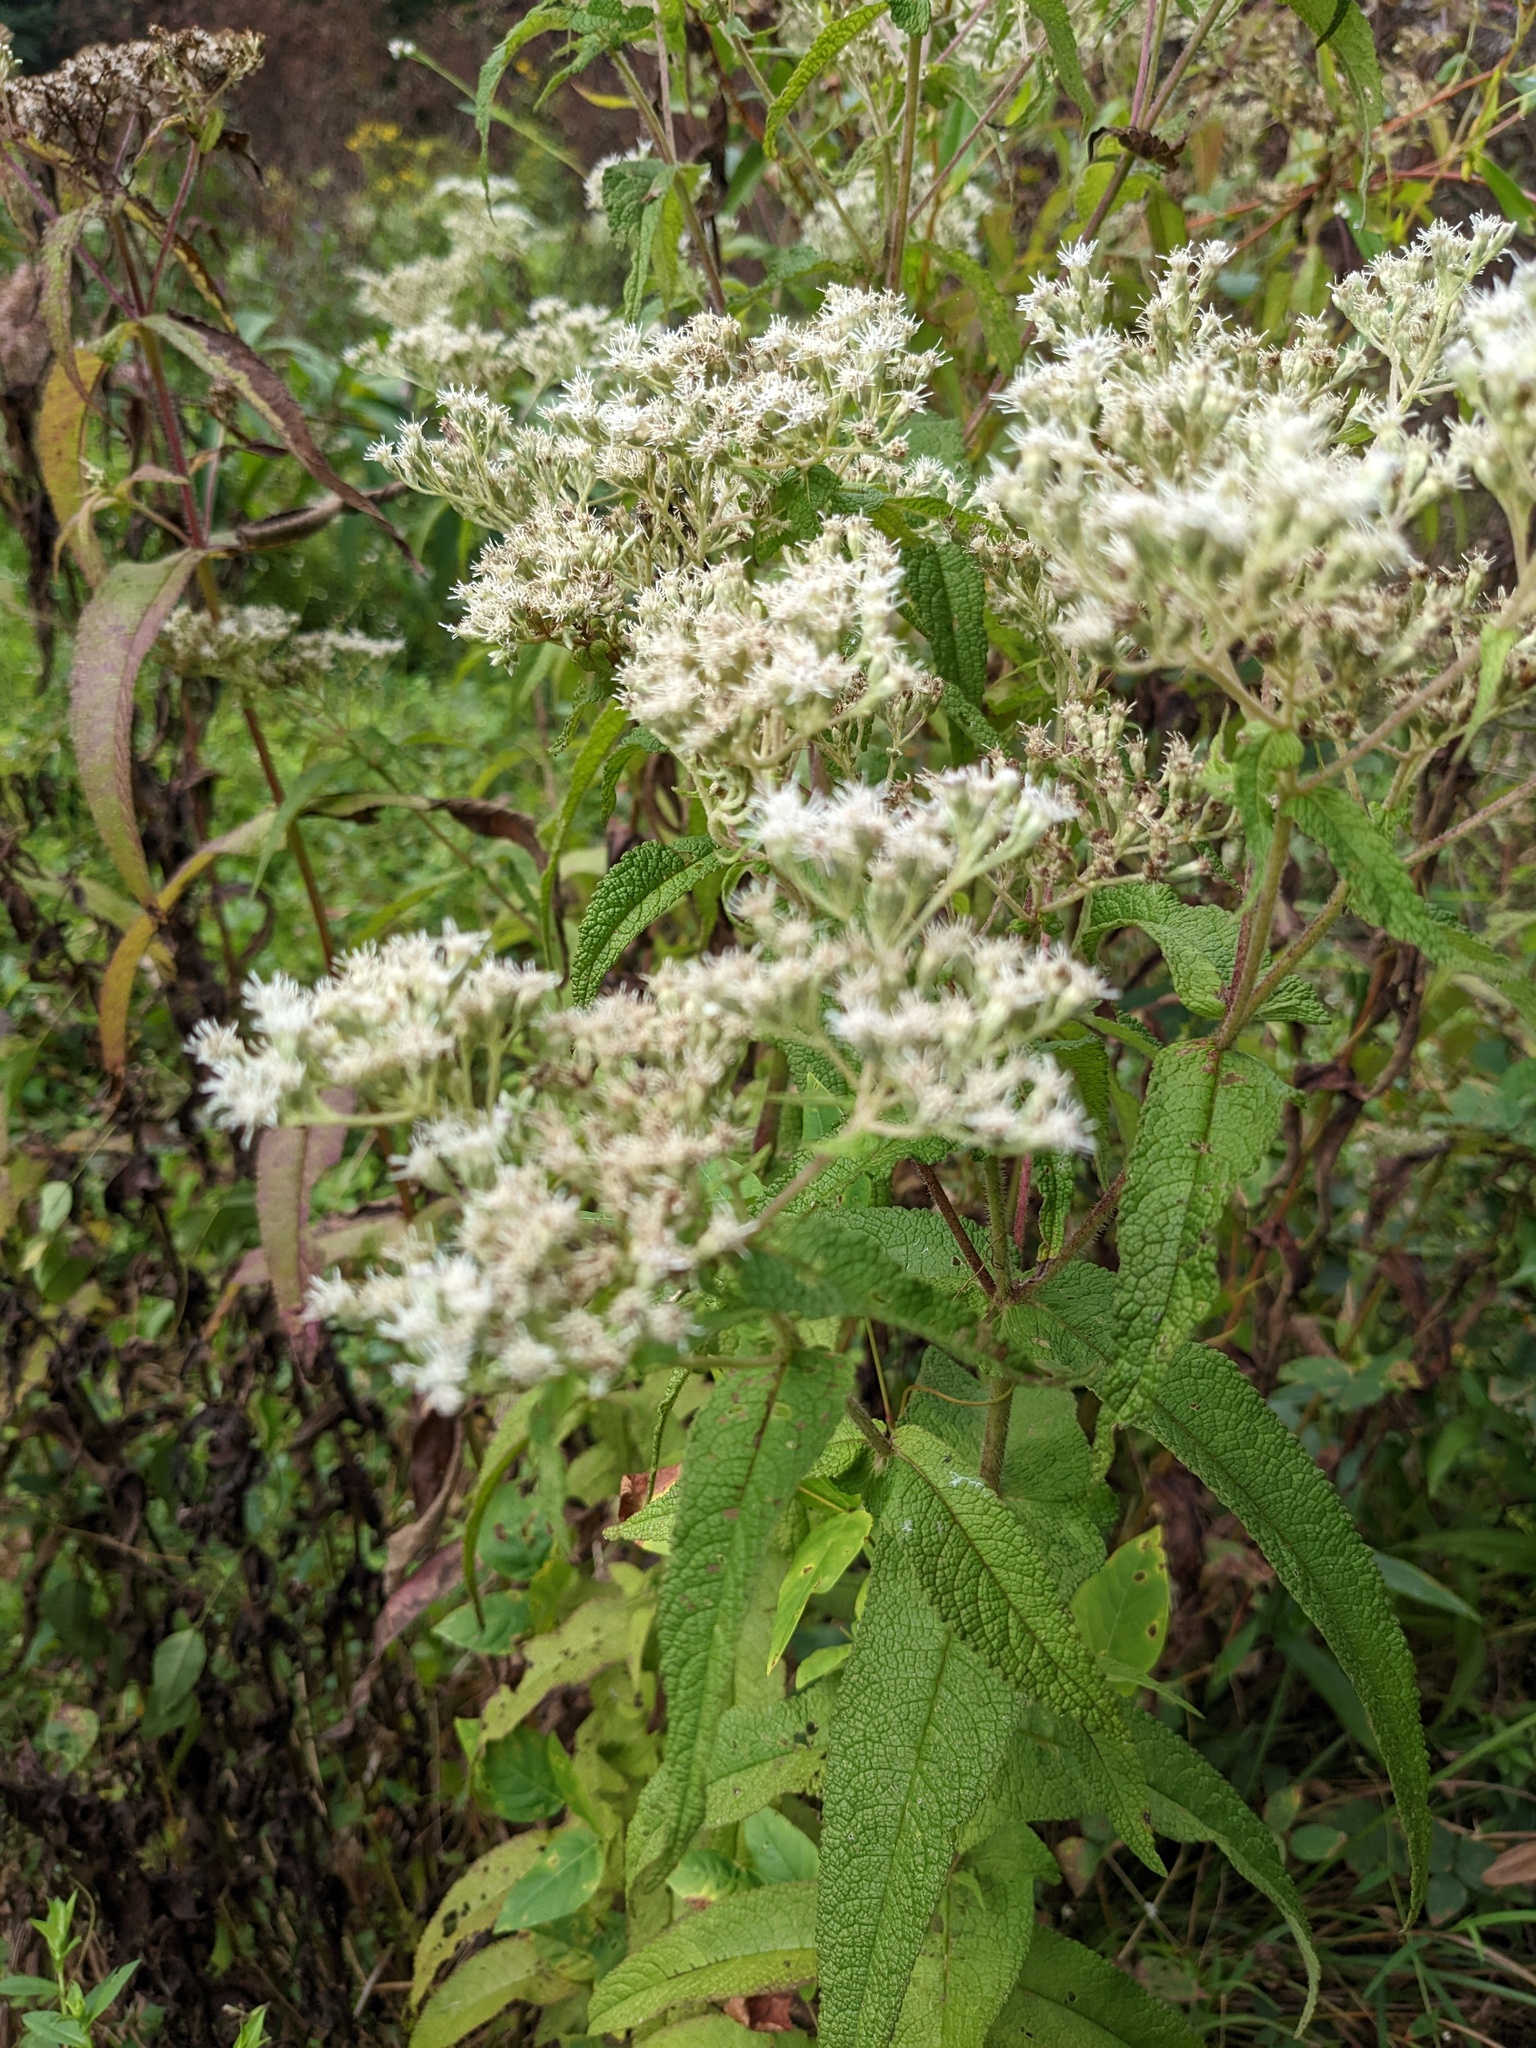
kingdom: Plantae
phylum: Tracheophyta
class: Magnoliopsida
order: Asterales
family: Asteraceae
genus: Eupatorium
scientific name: Eupatorium perfoliatum
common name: Boneset
